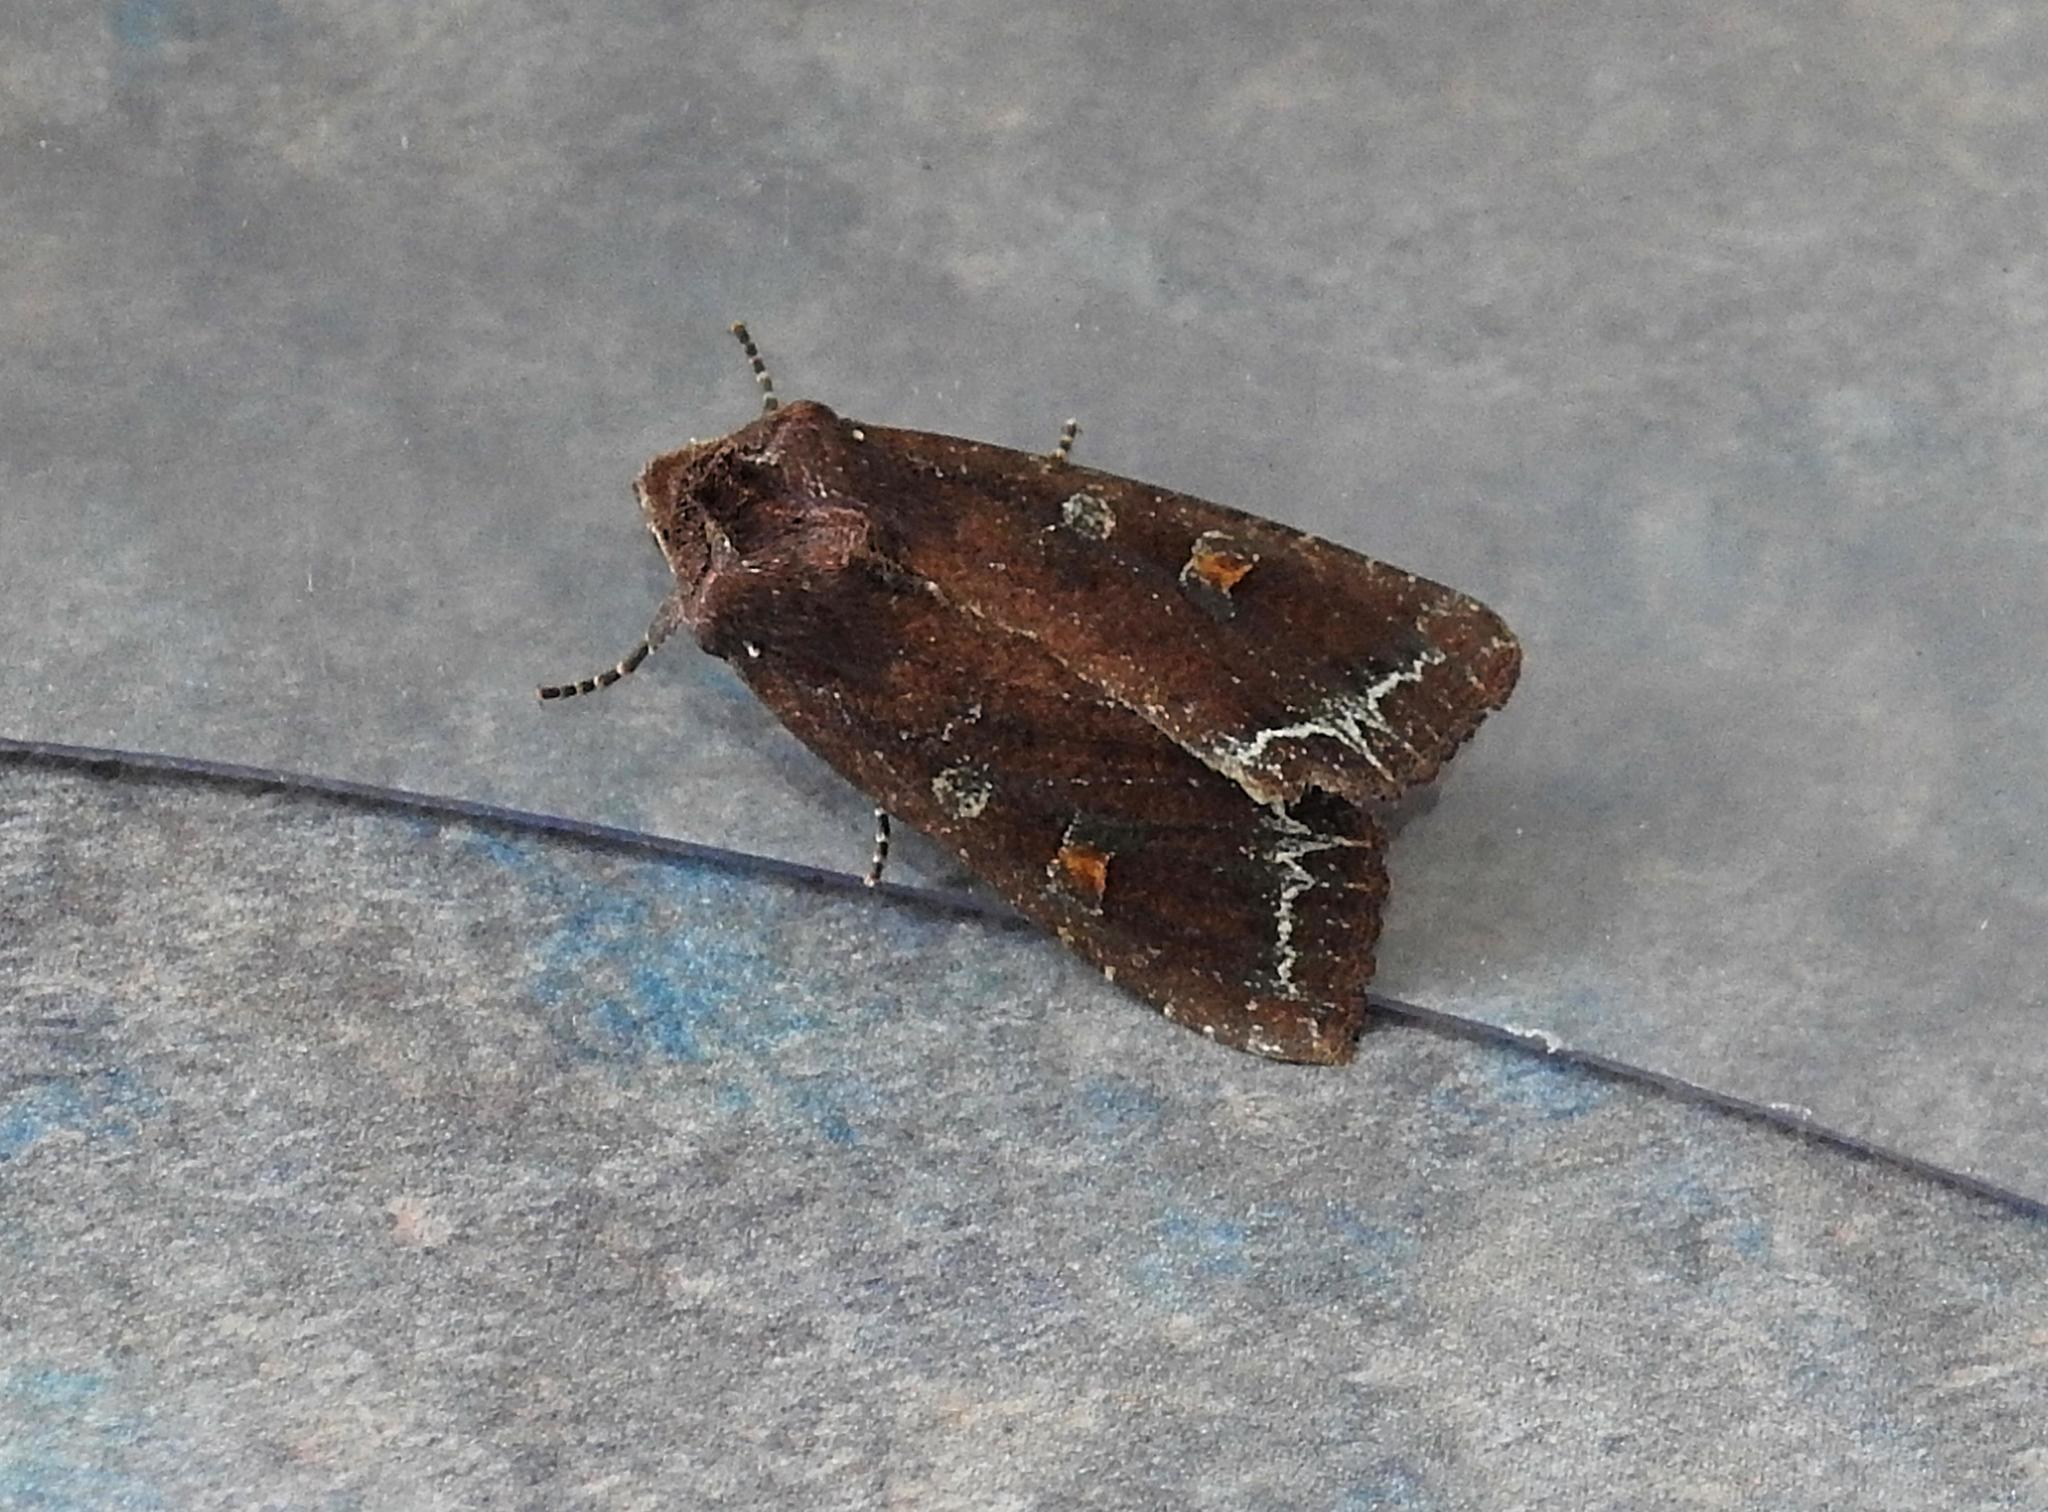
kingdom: Animalia
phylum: Arthropoda
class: Insecta
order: Lepidoptera
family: Noctuidae
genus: Lacanobia
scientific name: Lacanobia oleracea
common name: Bright-line brown-eye
